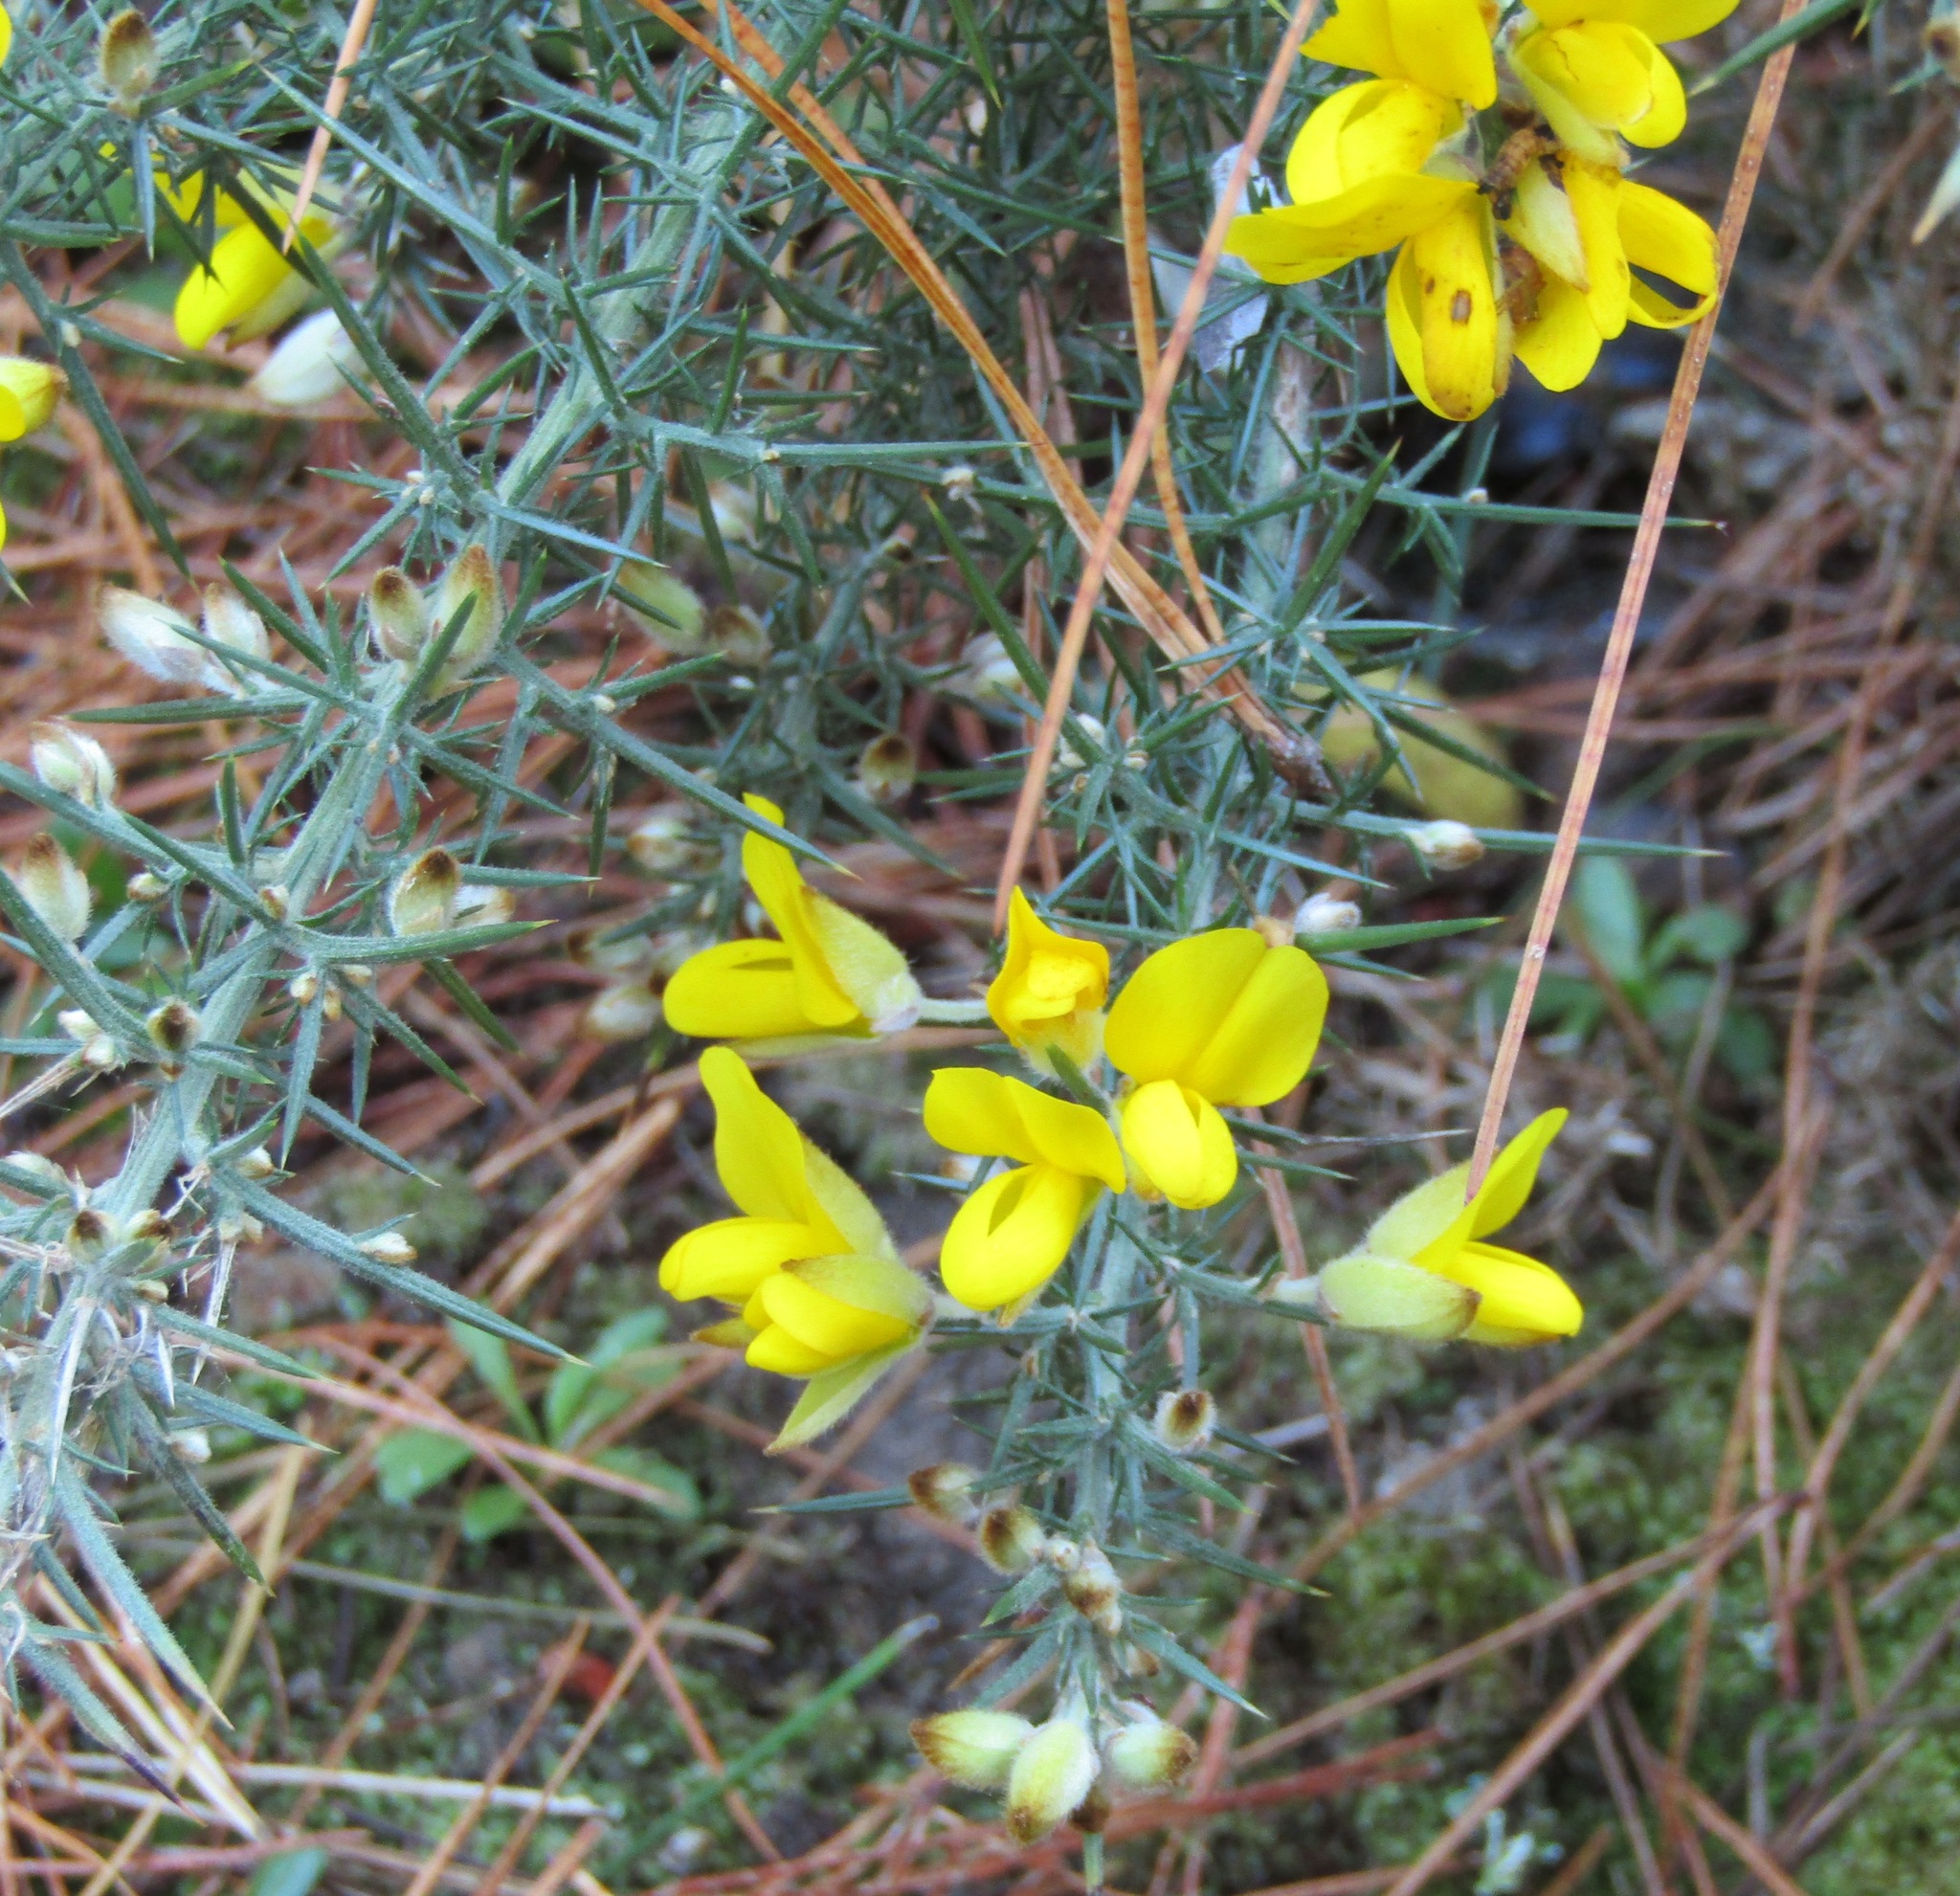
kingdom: Plantae
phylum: Tracheophyta
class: Magnoliopsida
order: Fabales
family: Fabaceae
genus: Ulex
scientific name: Ulex europaeus
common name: Common gorse
